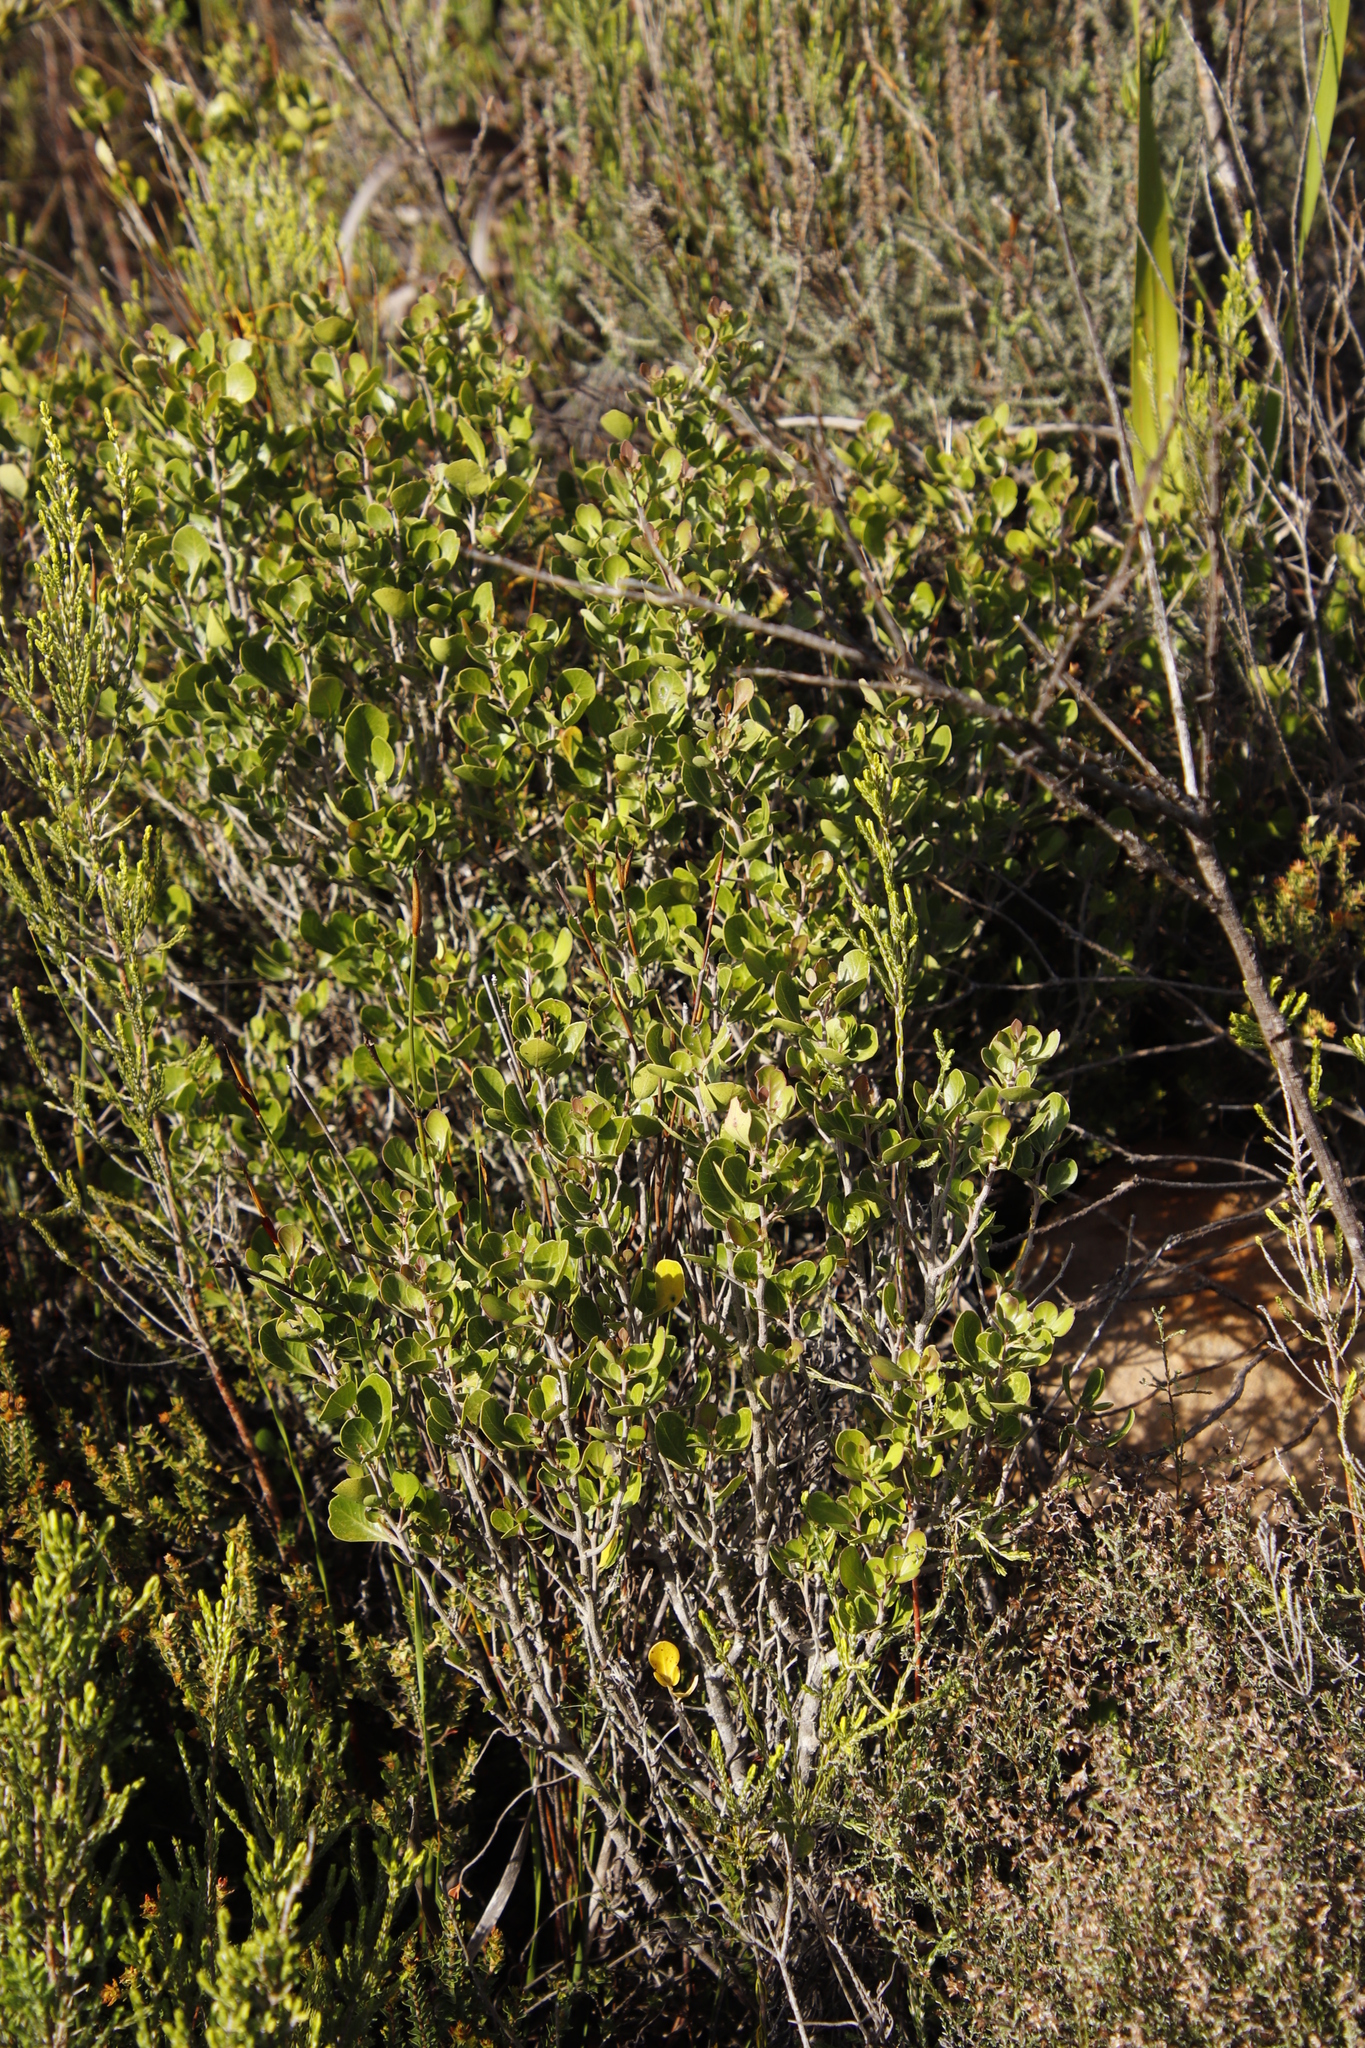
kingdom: Plantae
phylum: Tracheophyta
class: Magnoliopsida
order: Sapindales
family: Anacardiaceae
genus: Searsia
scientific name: Searsia lucida
